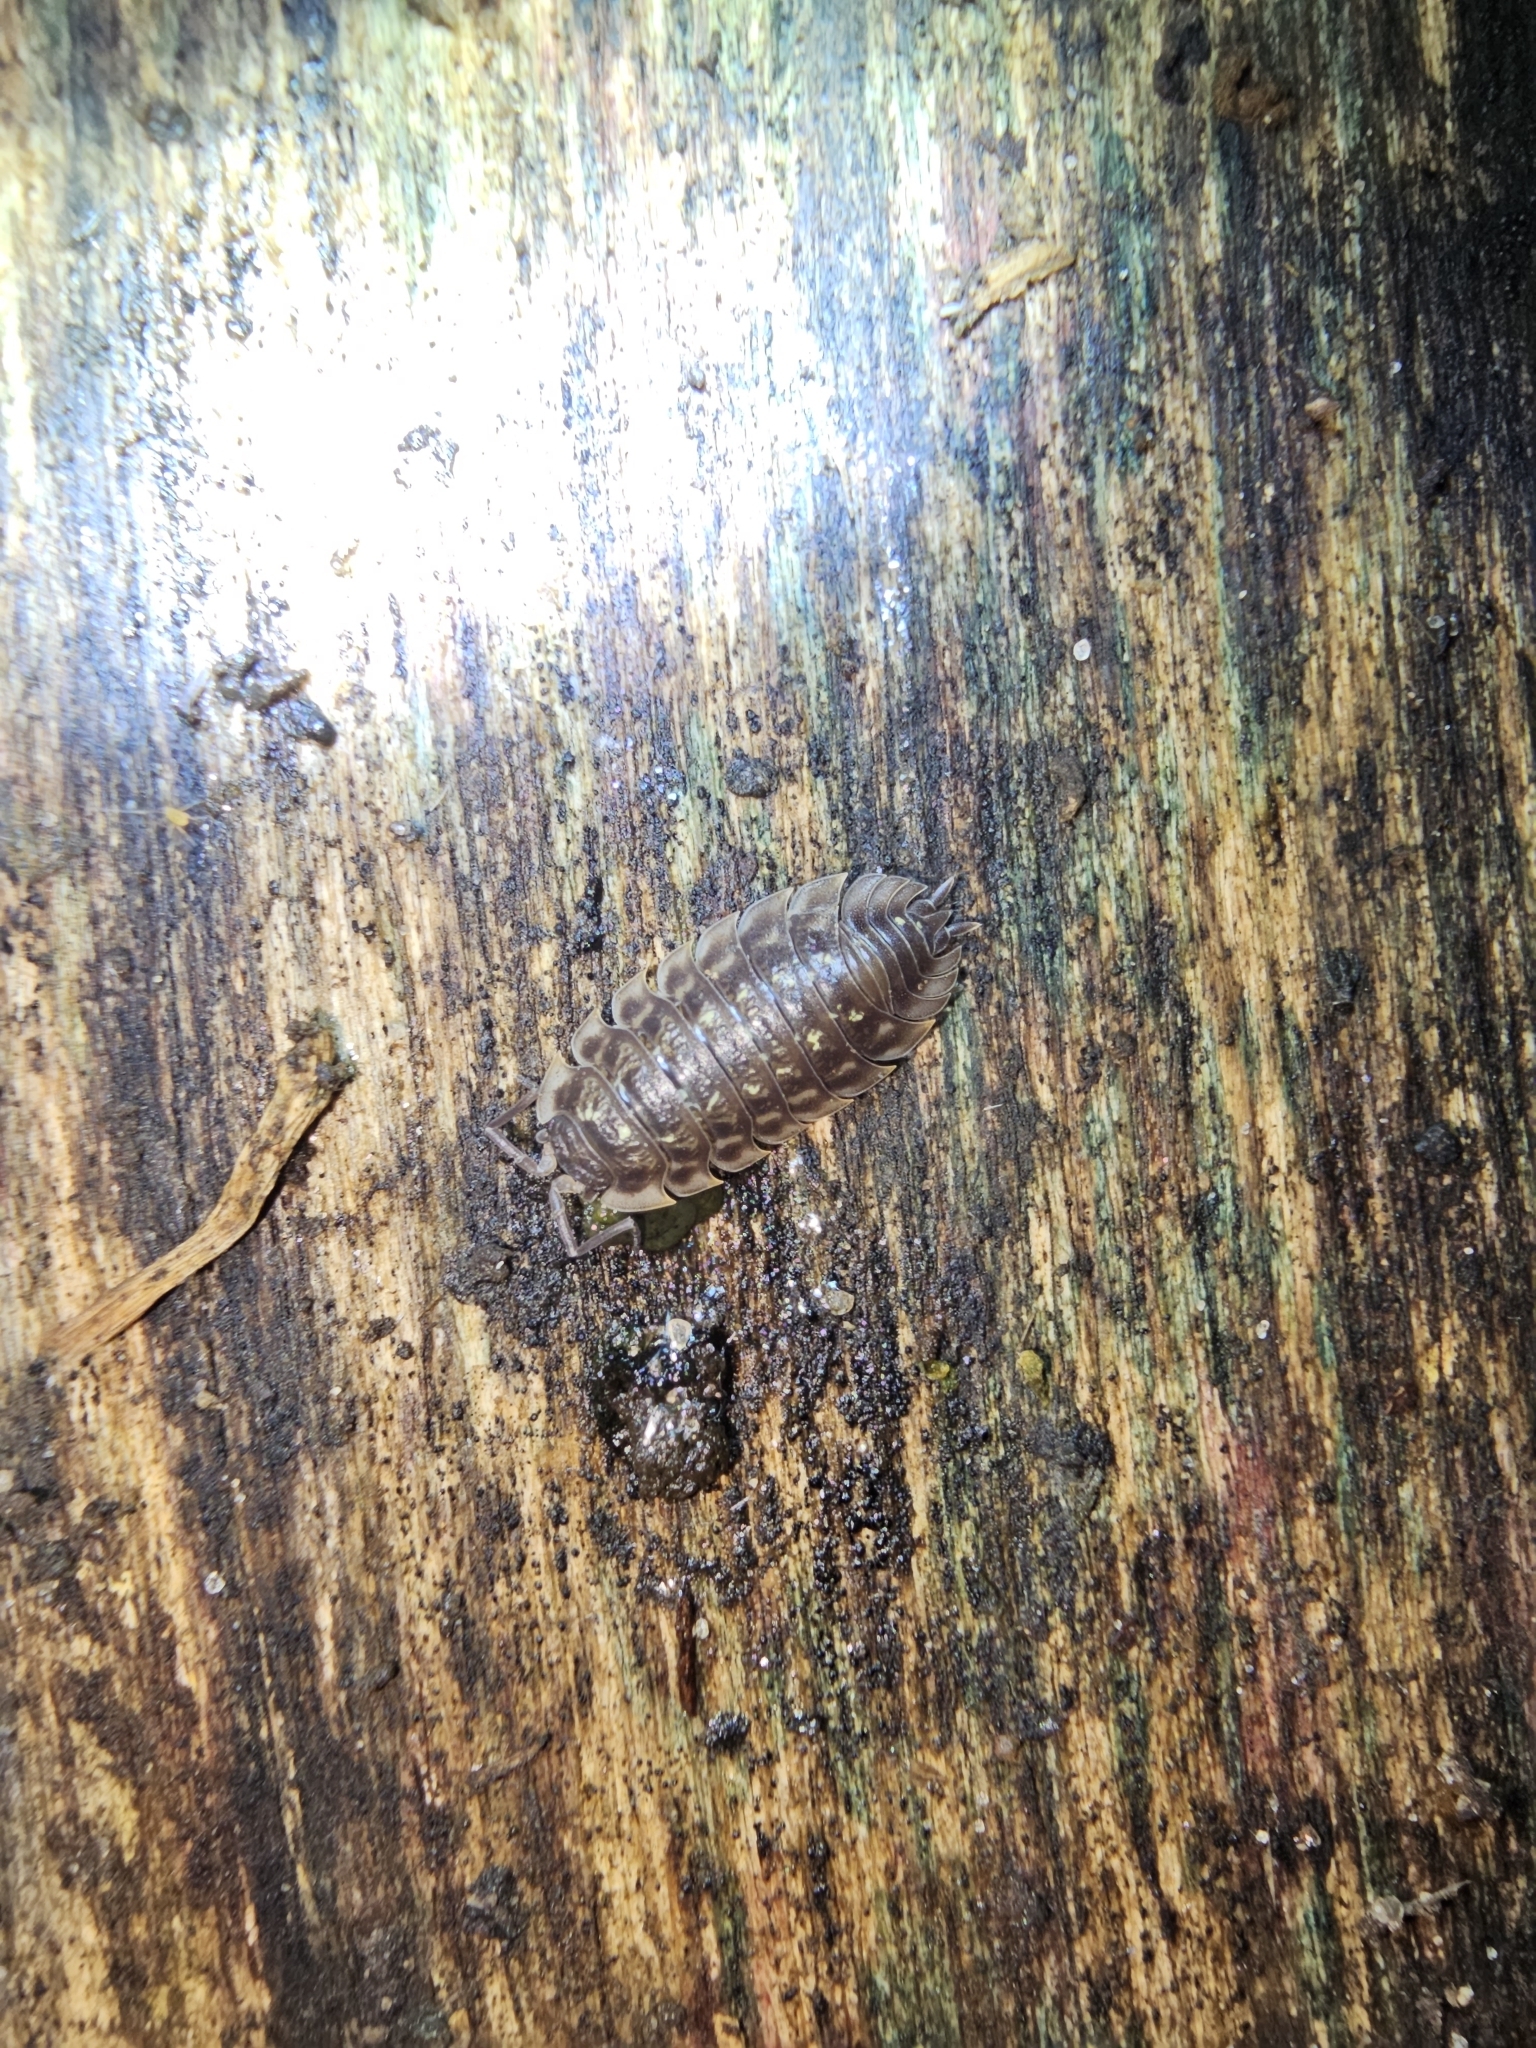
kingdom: Animalia
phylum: Arthropoda
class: Malacostraca
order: Isopoda
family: Oniscidae
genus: Oniscus
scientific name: Oniscus asellus
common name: Common shiny woodlouse
